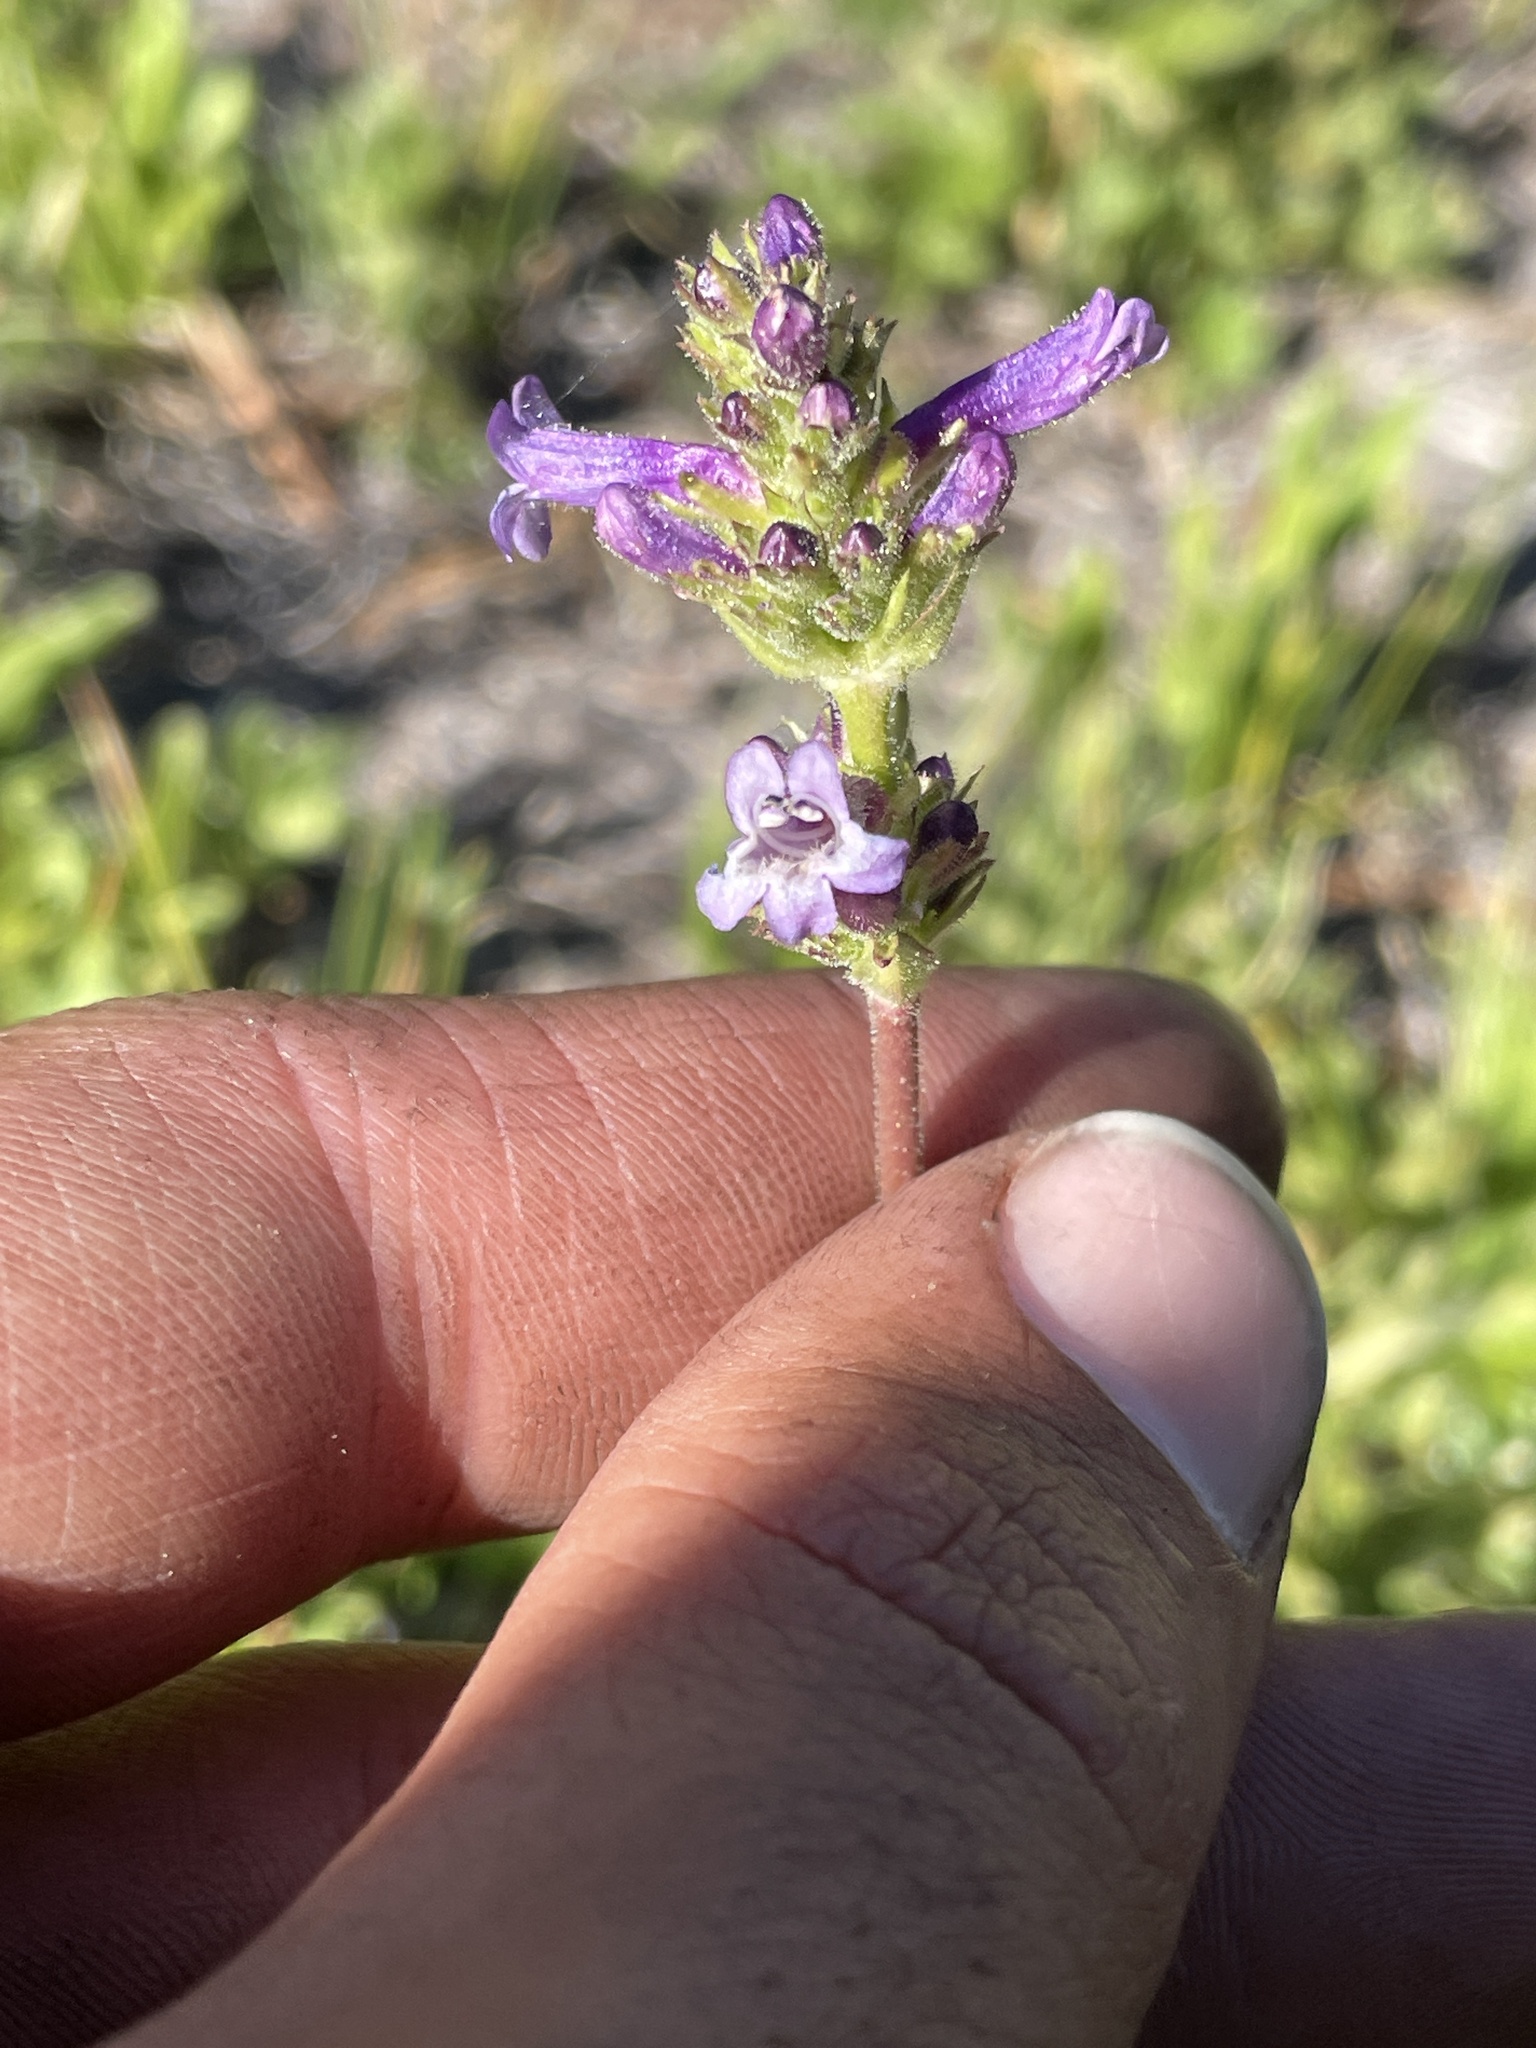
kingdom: Plantae
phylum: Tracheophyta
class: Magnoliopsida
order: Lamiales
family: Plantaginaceae
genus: Penstemon
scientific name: Penstemon rydbergii
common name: Rydberg's beardtongue
